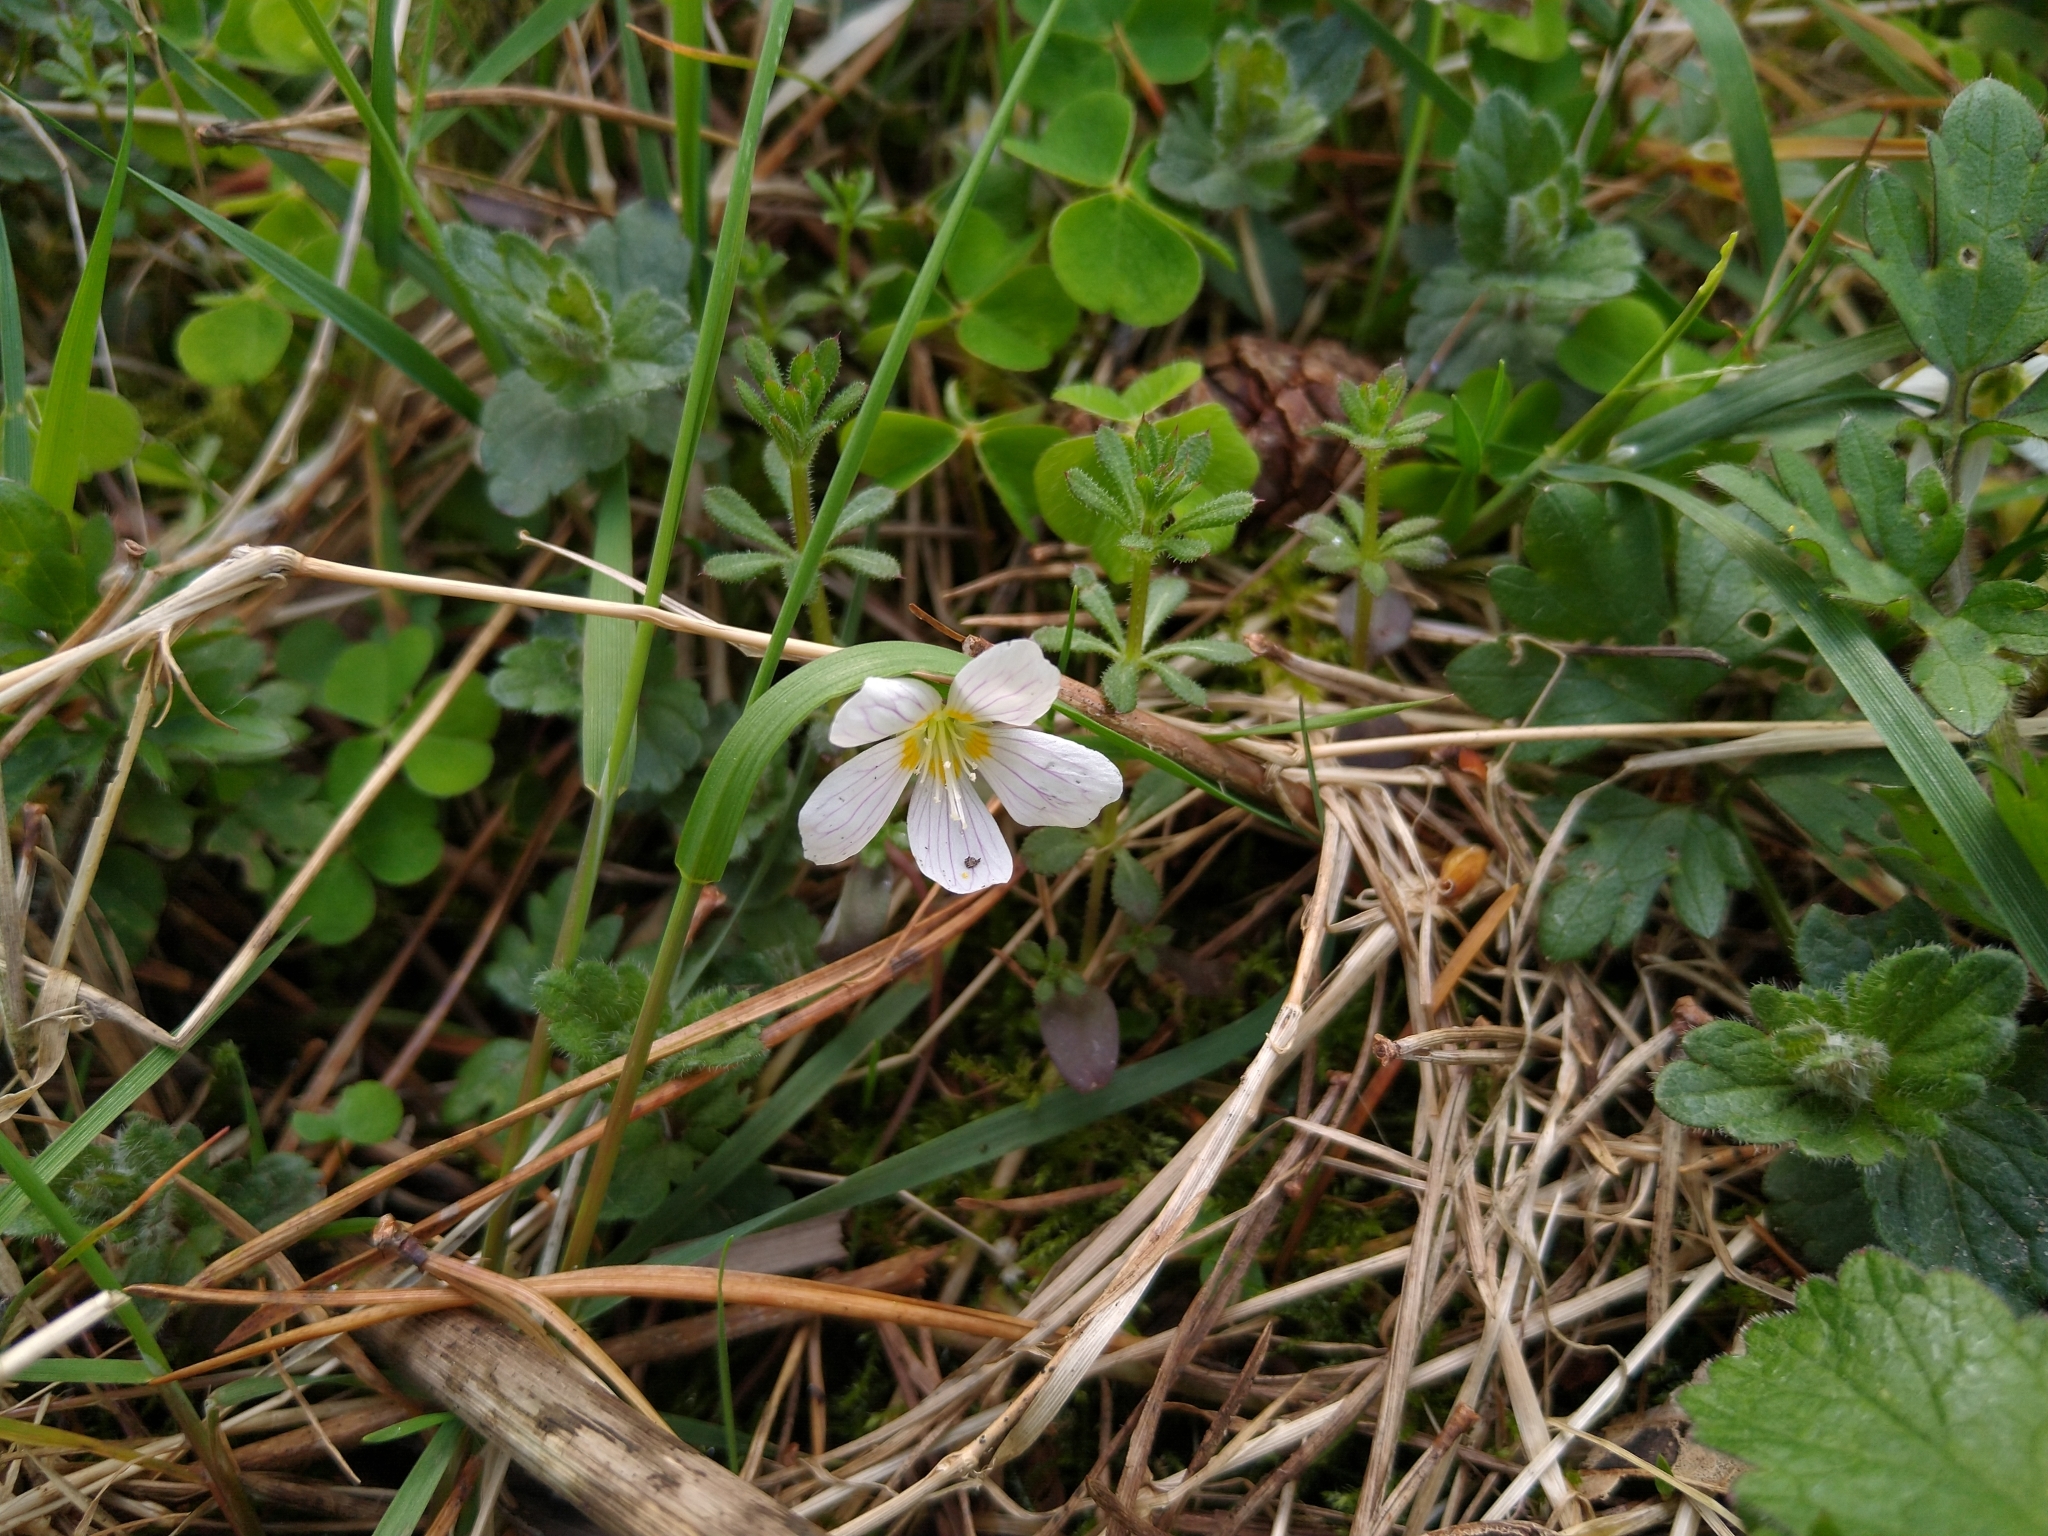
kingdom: Plantae
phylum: Tracheophyta
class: Magnoliopsida
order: Oxalidales
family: Oxalidaceae
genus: Oxalis
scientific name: Oxalis acetosella
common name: Wood-sorrel
